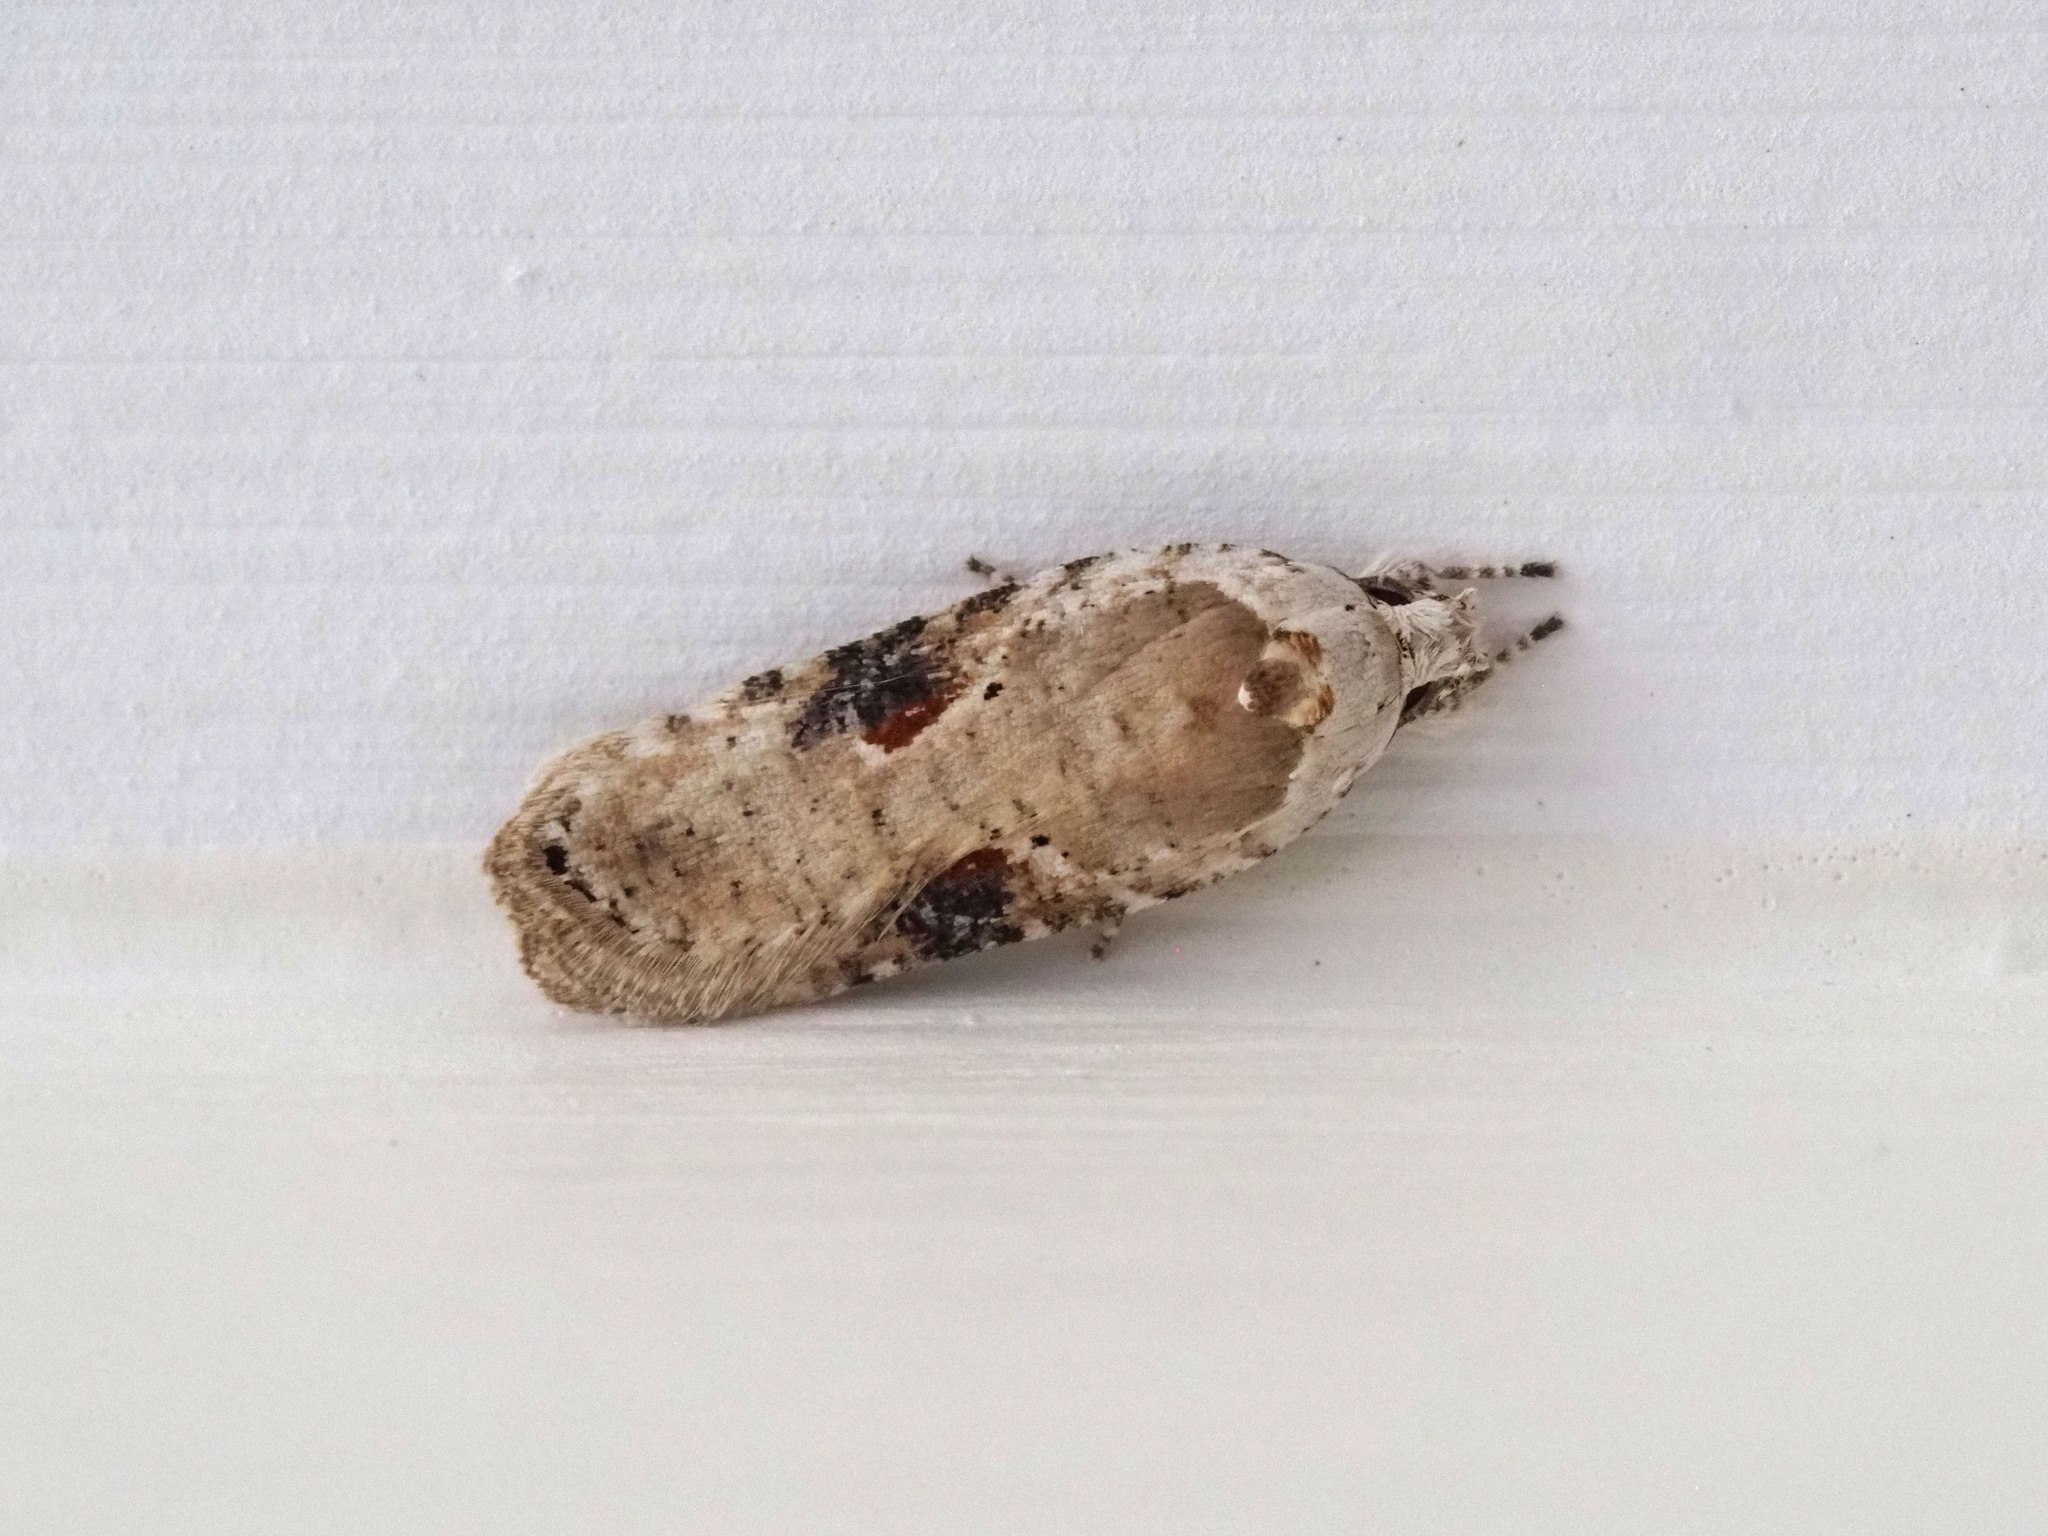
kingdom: Animalia
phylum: Arthropoda
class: Insecta
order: Lepidoptera
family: Depressariidae
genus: Agonopterix
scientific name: Agonopterix alstroemeriana
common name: Moth
